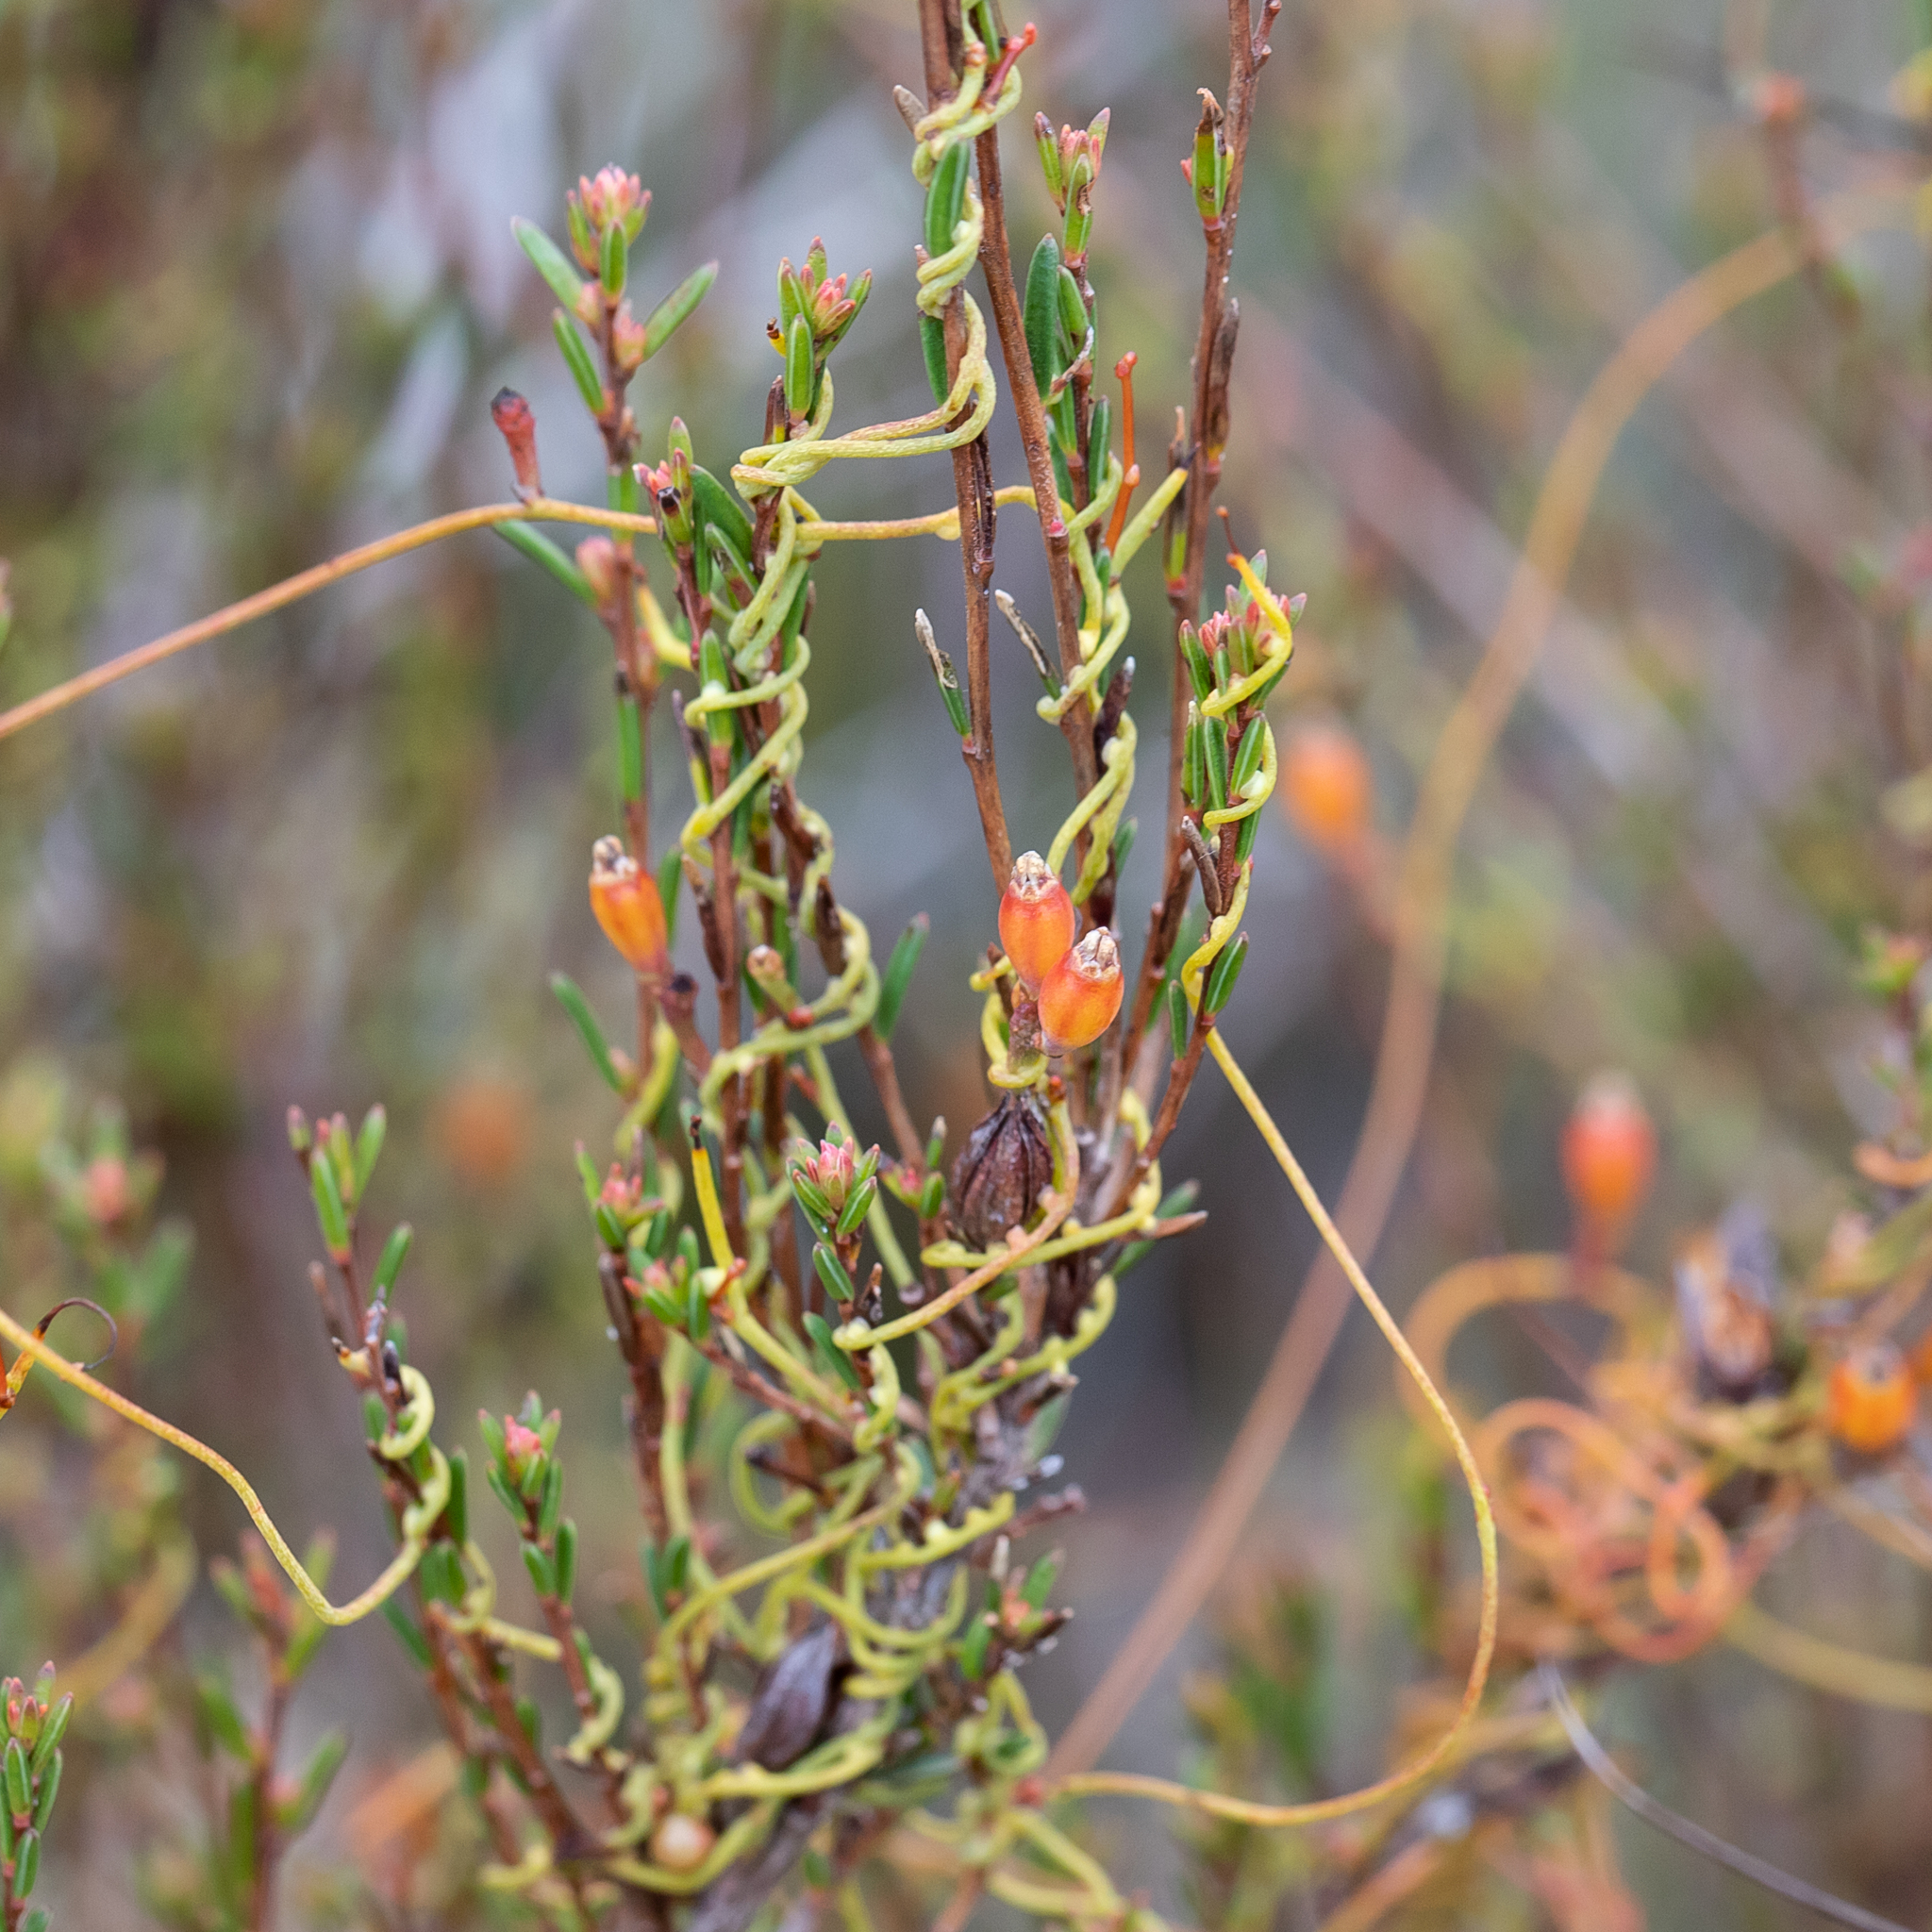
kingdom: Plantae
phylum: Tracheophyta
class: Magnoliopsida
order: Laurales
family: Lauraceae
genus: Cassytha
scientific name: Cassytha glabella
